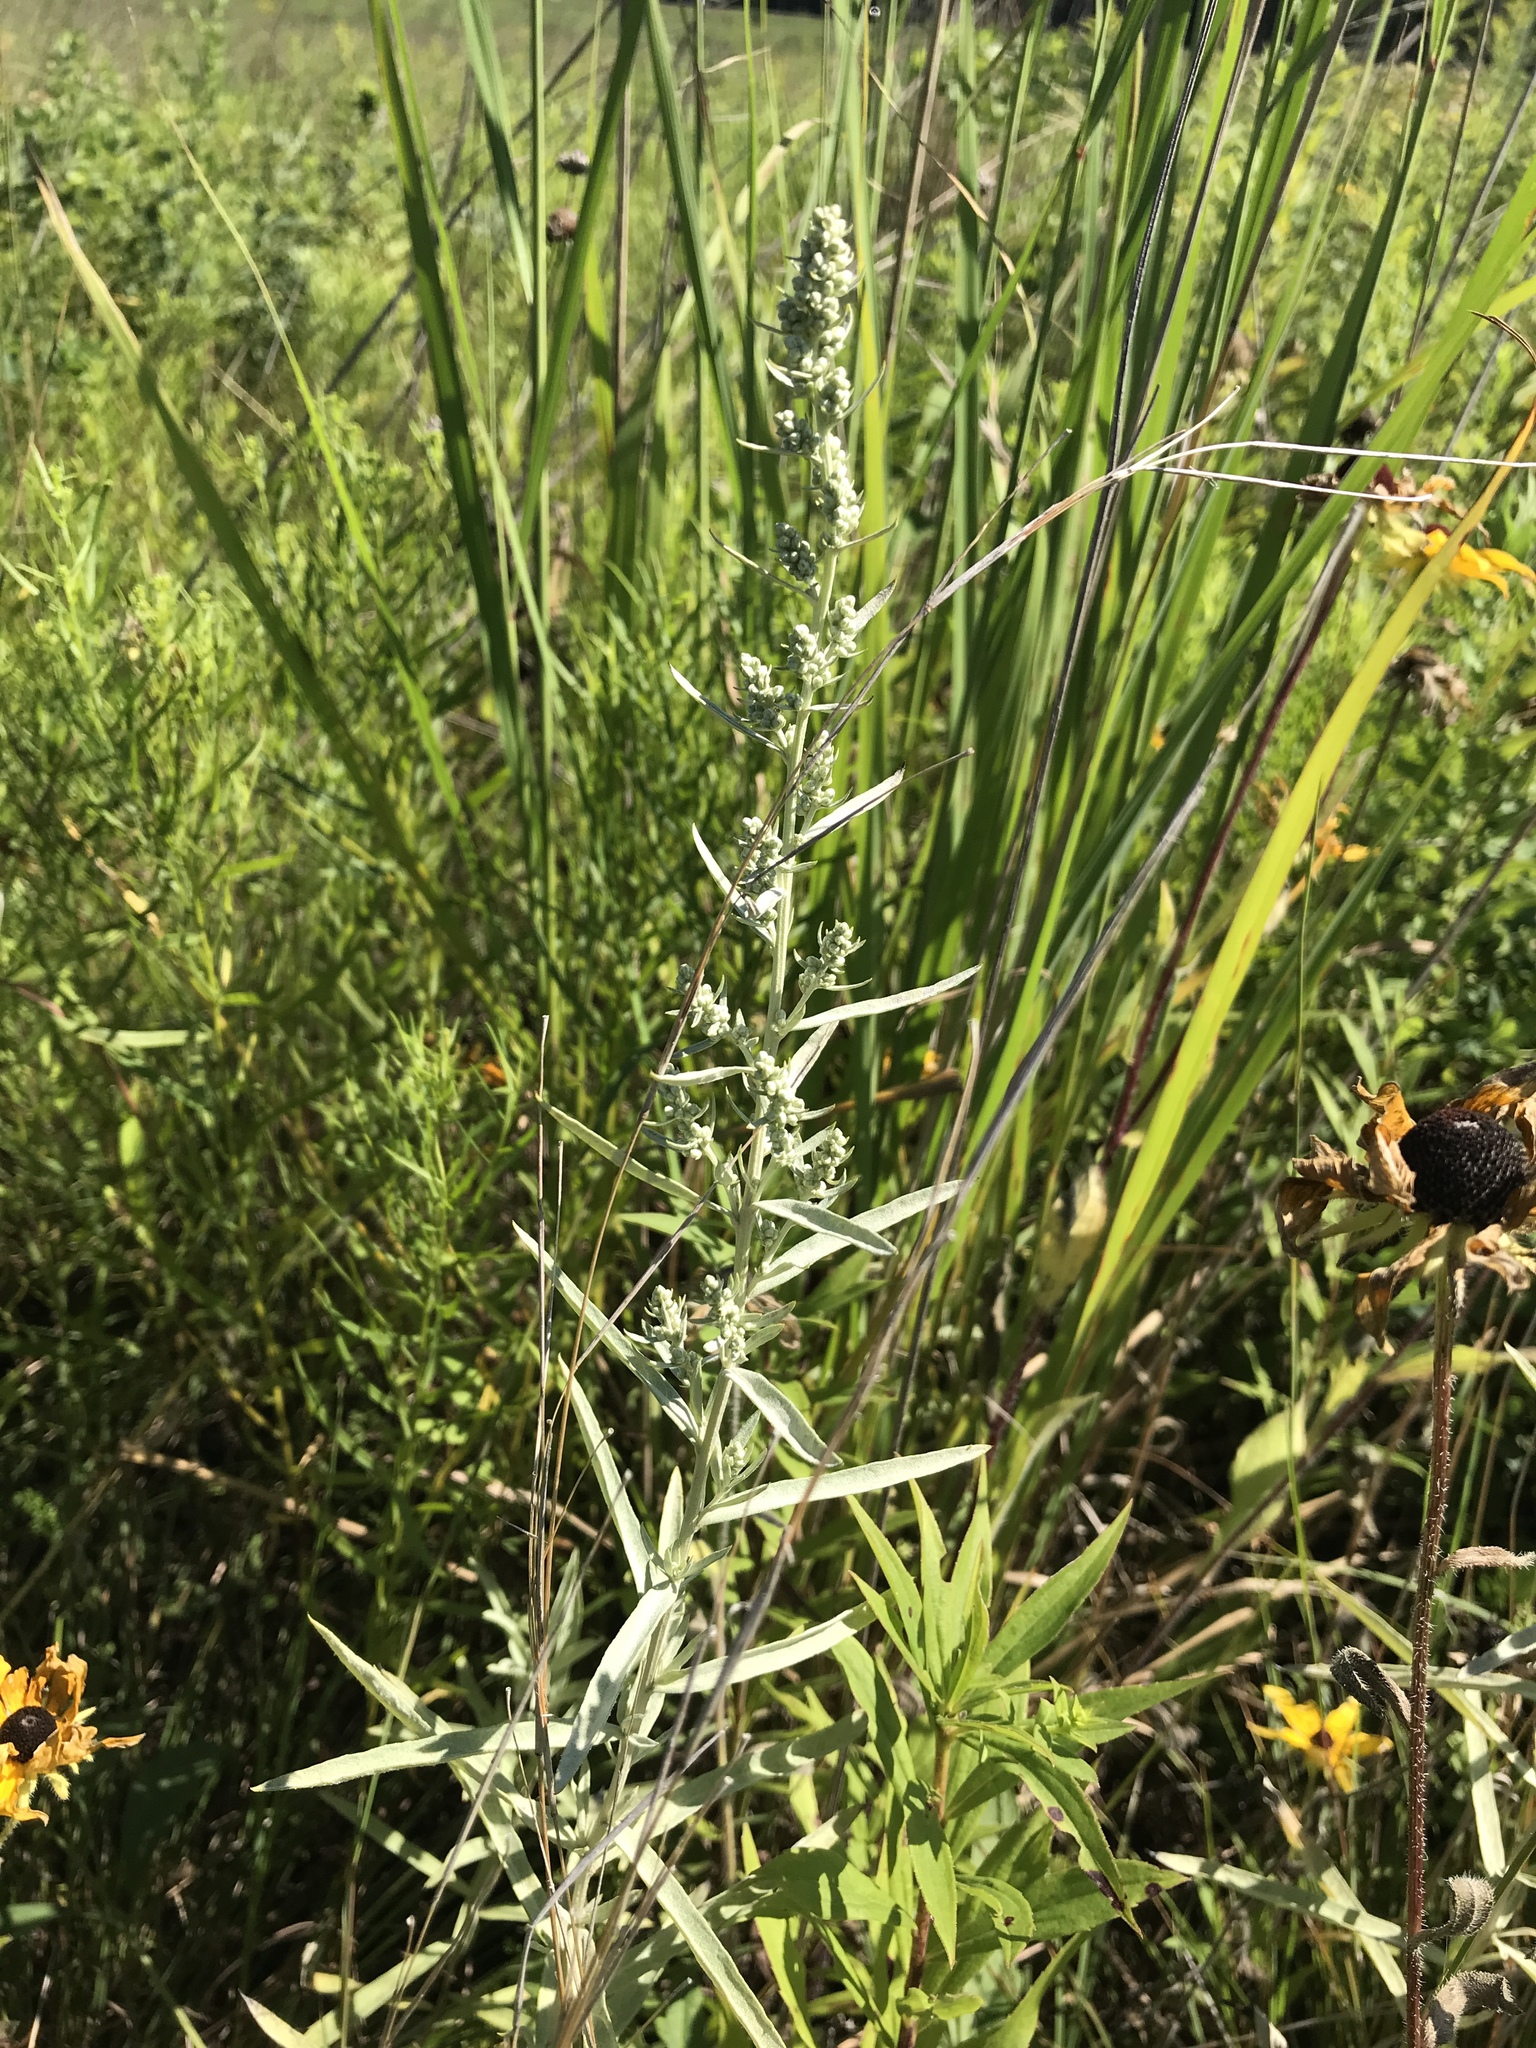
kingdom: Plantae
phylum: Tracheophyta
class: Magnoliopsida
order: Asterales
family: Asteraceae
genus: Artemisia
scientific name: Artemisia ludoviciana
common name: Western mugwort
